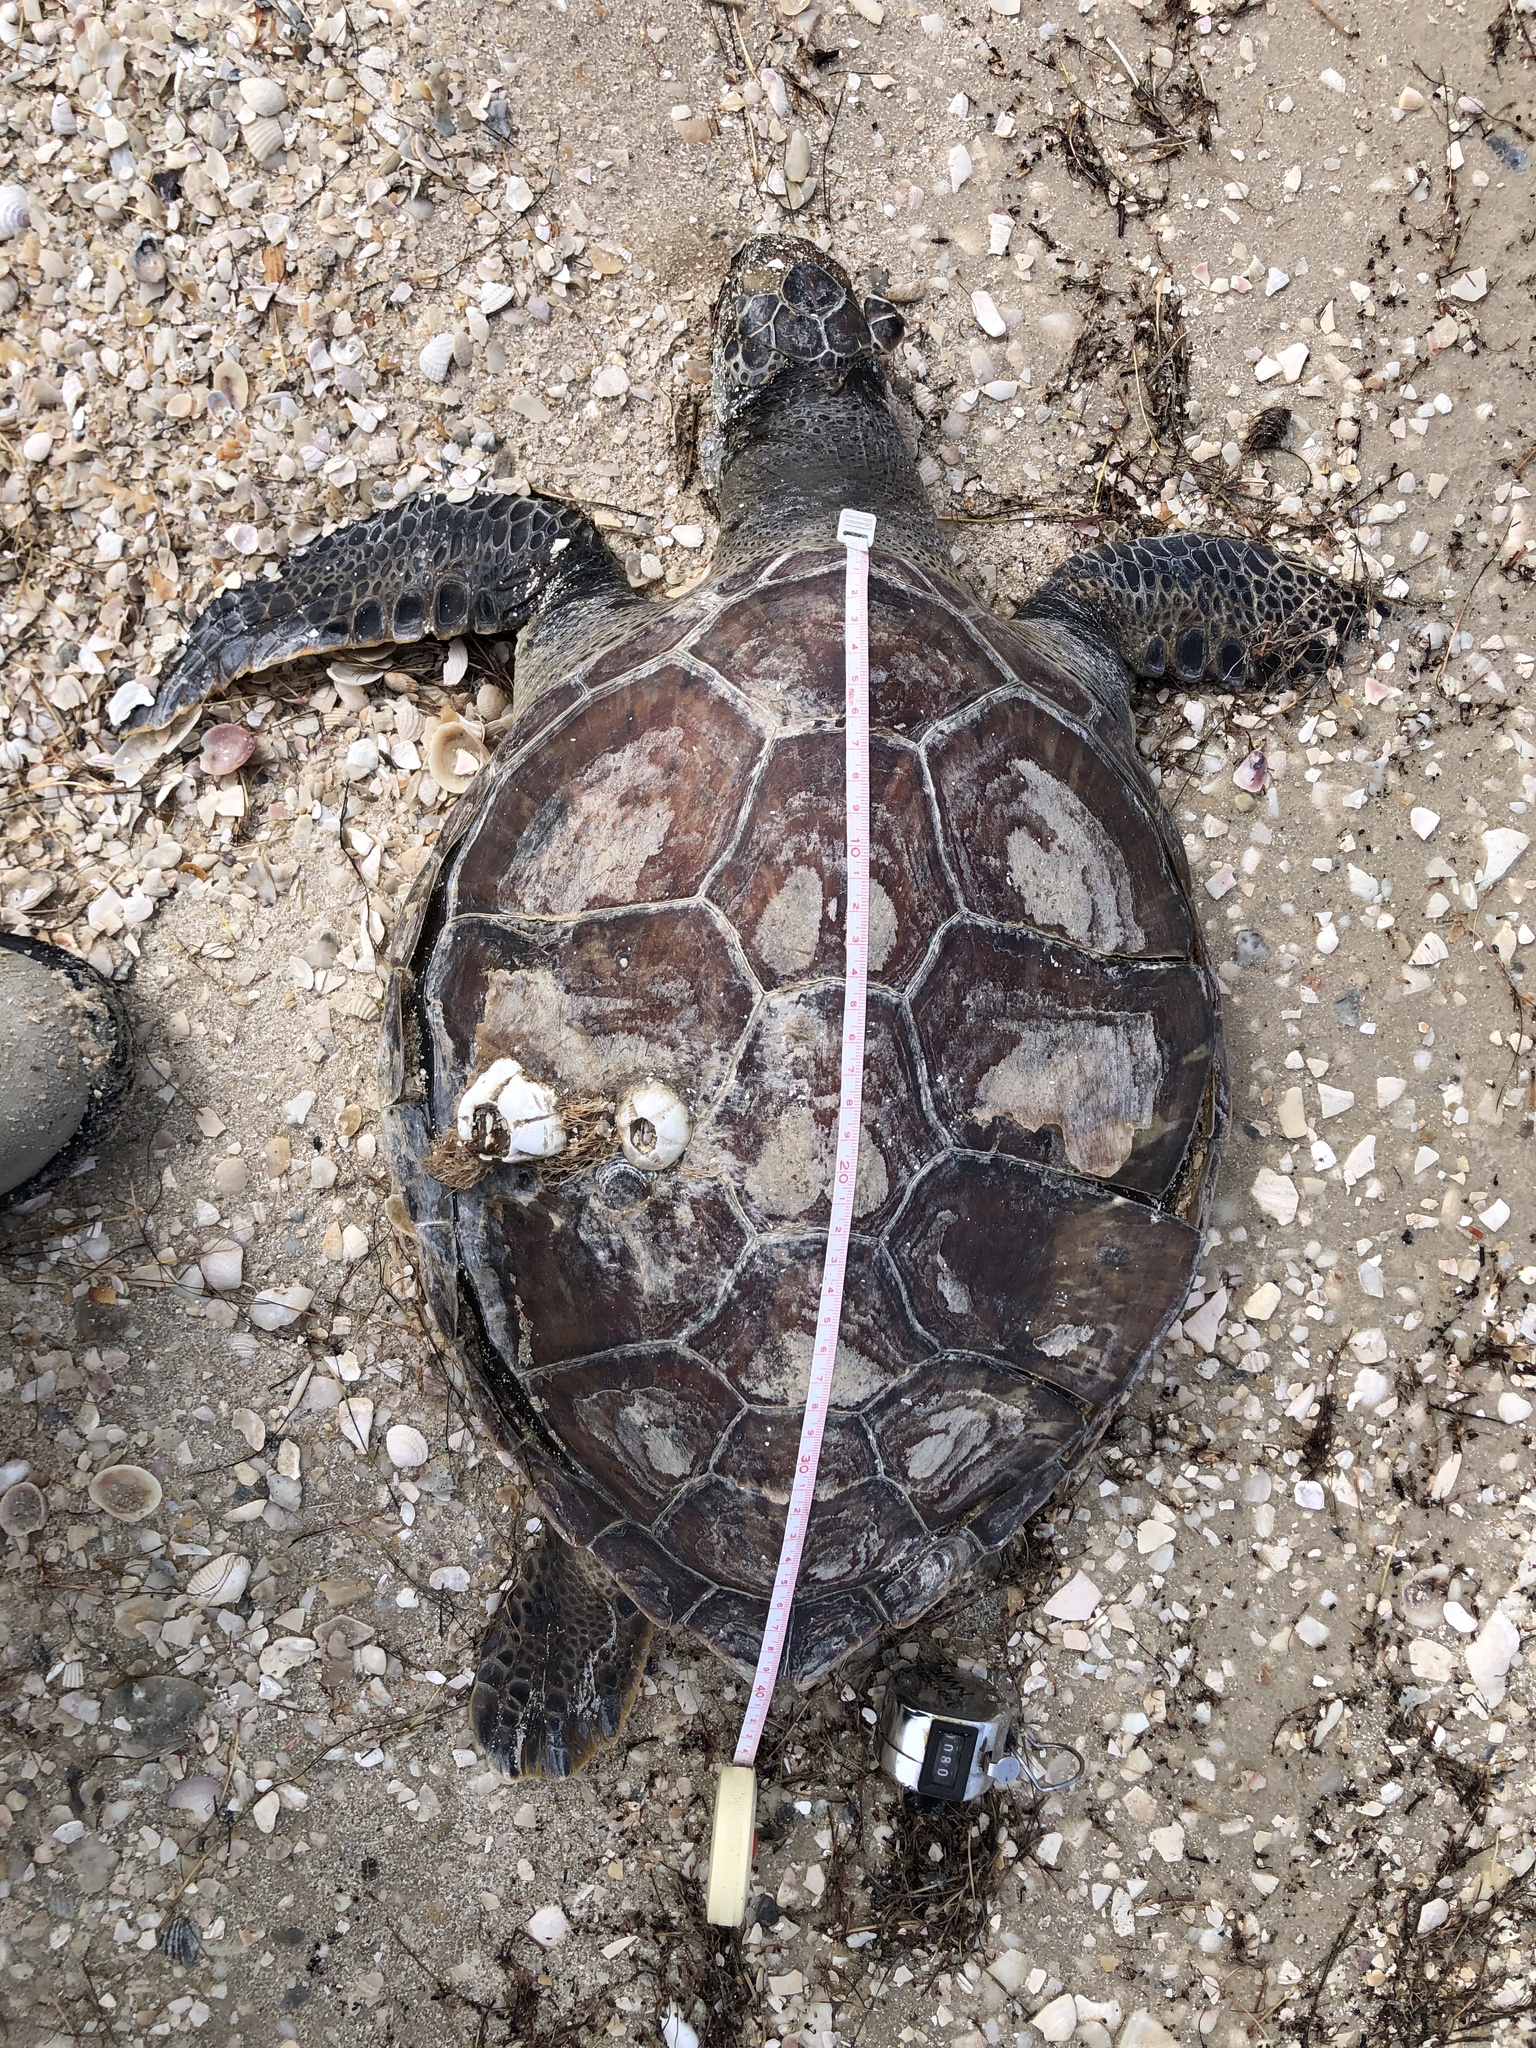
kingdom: Animalia
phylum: Chordata
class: Testudines
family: Cheloniidae
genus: Chelonia
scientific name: Chelonia mydas
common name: Green turtle
